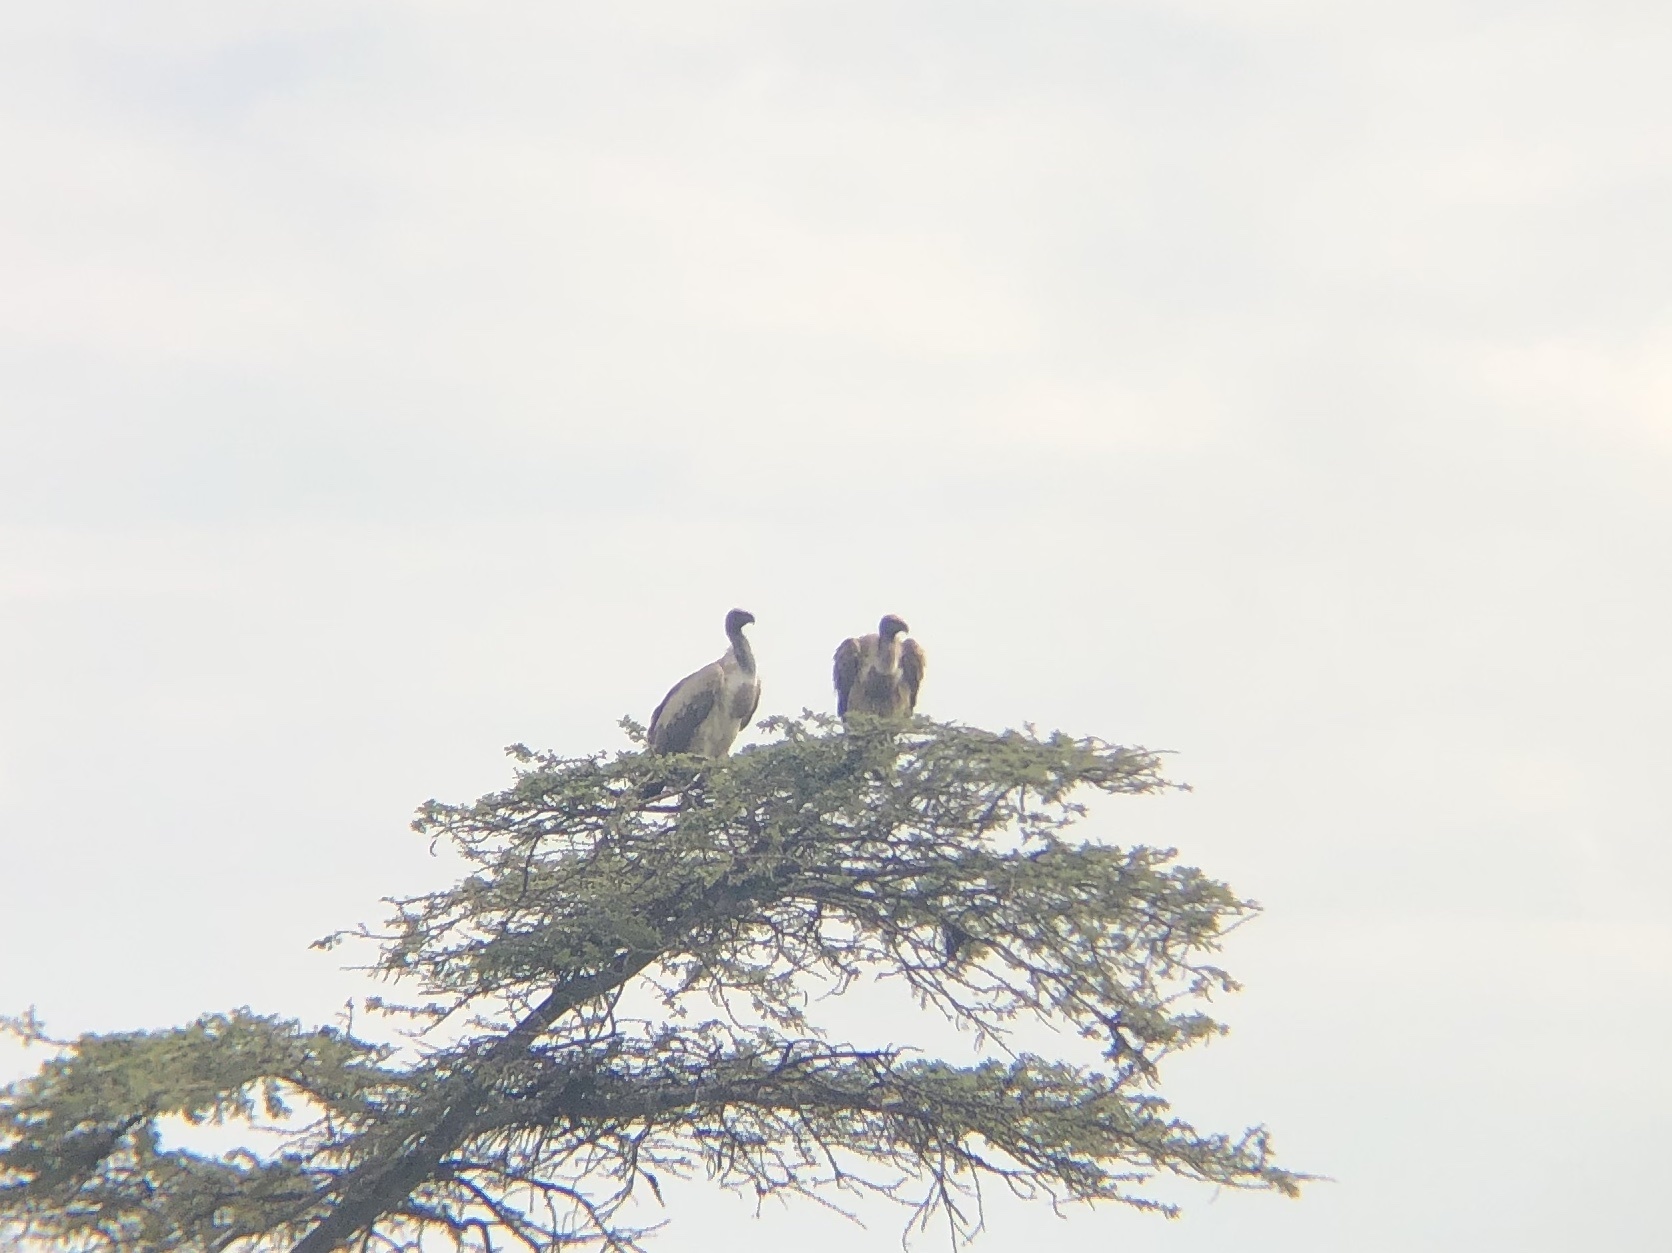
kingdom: Animalia
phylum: Chordata
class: Aves
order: Accipitriformes
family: Accipitridae
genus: Gyps
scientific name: Gyps africanus
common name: White-backed vulture
